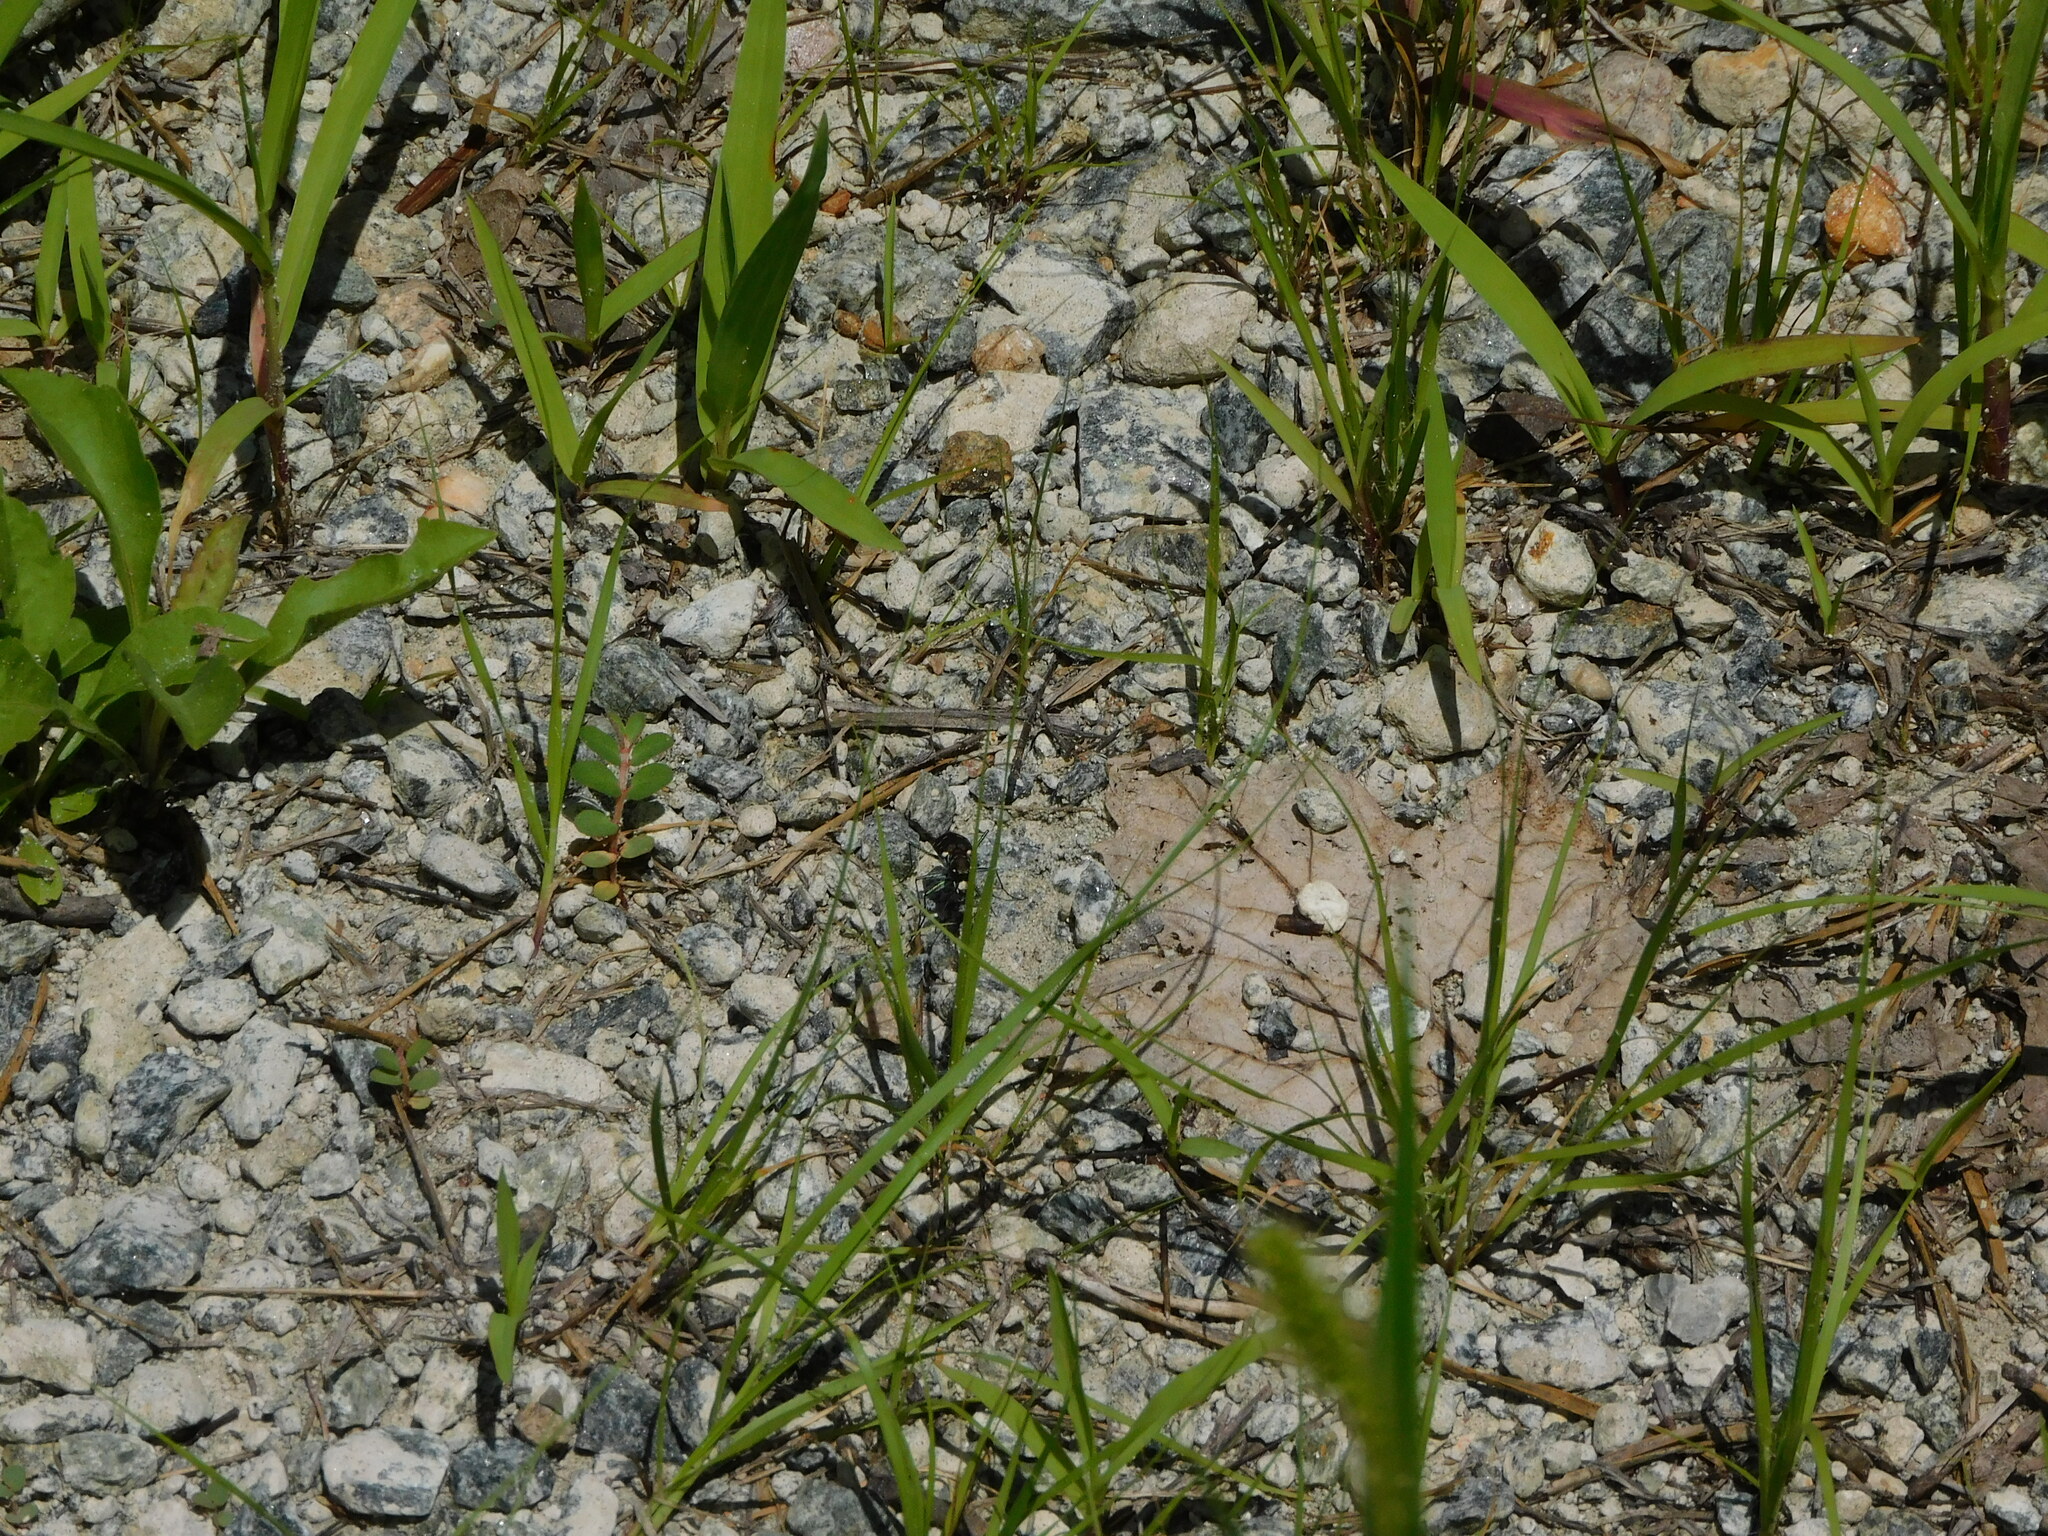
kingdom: Animalia
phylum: Arthropoda
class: Insecta
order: Coleoptera
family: Carabidae
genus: Cicindela
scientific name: Cicindela rufiventris
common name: Eastern red-bellied tiger beetle
